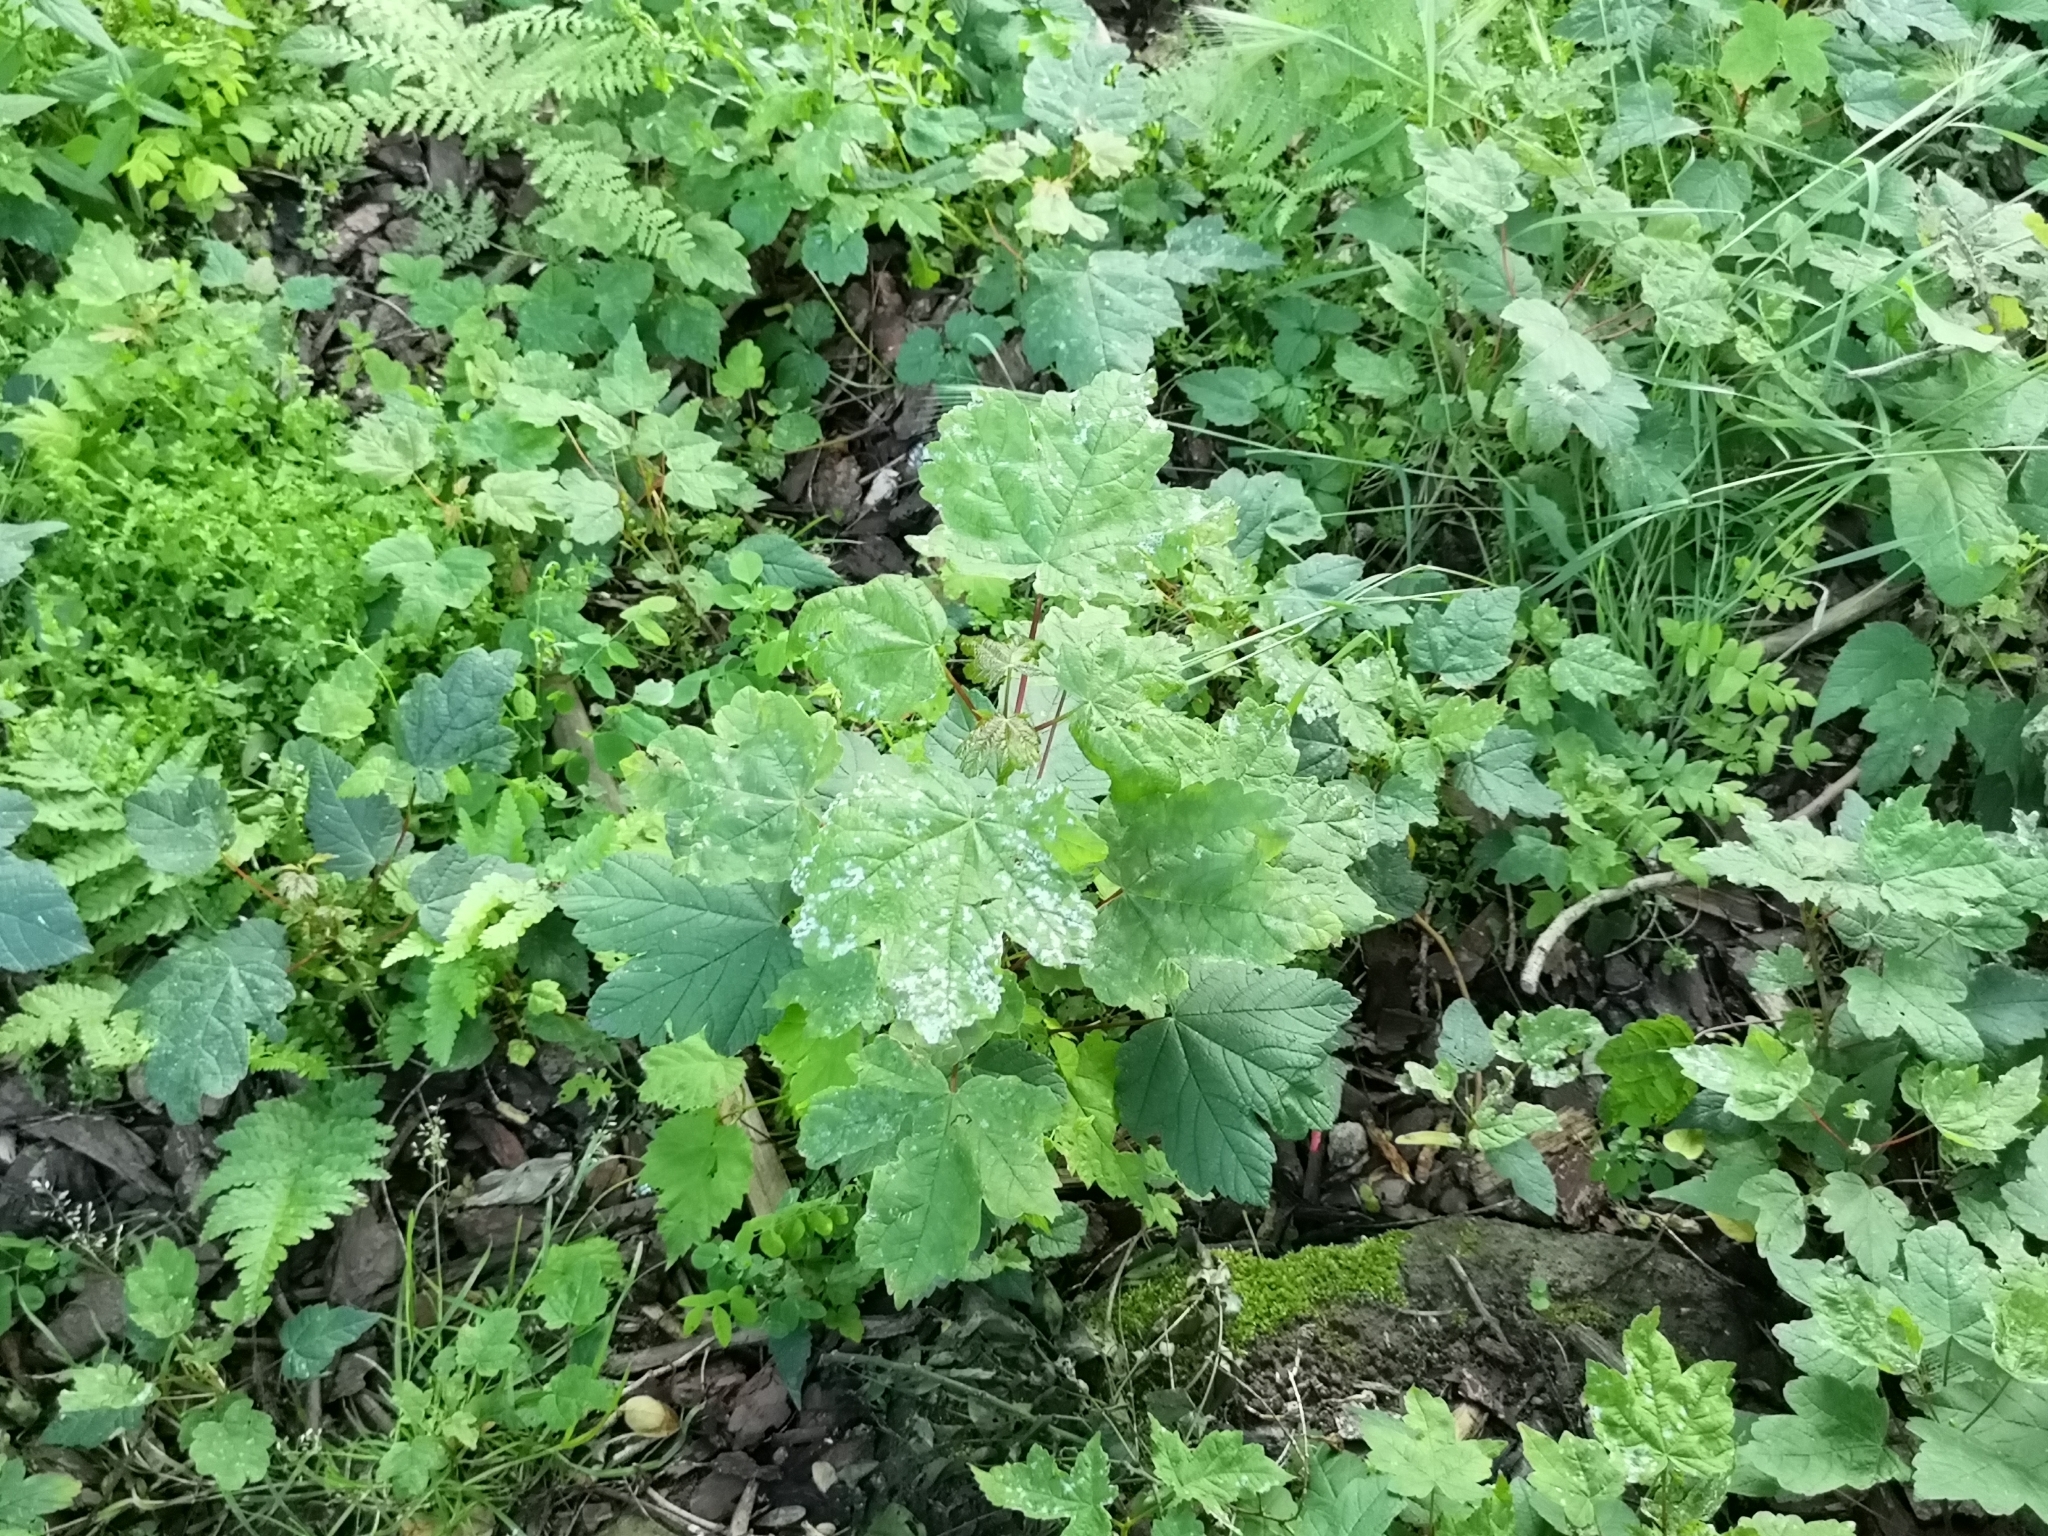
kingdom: Plantae
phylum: Tracheophyta
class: Magnoliopsida
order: Sapindales
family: Sapindaceae
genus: Acer
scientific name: Acer pseudoplatanus
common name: Sycamore
